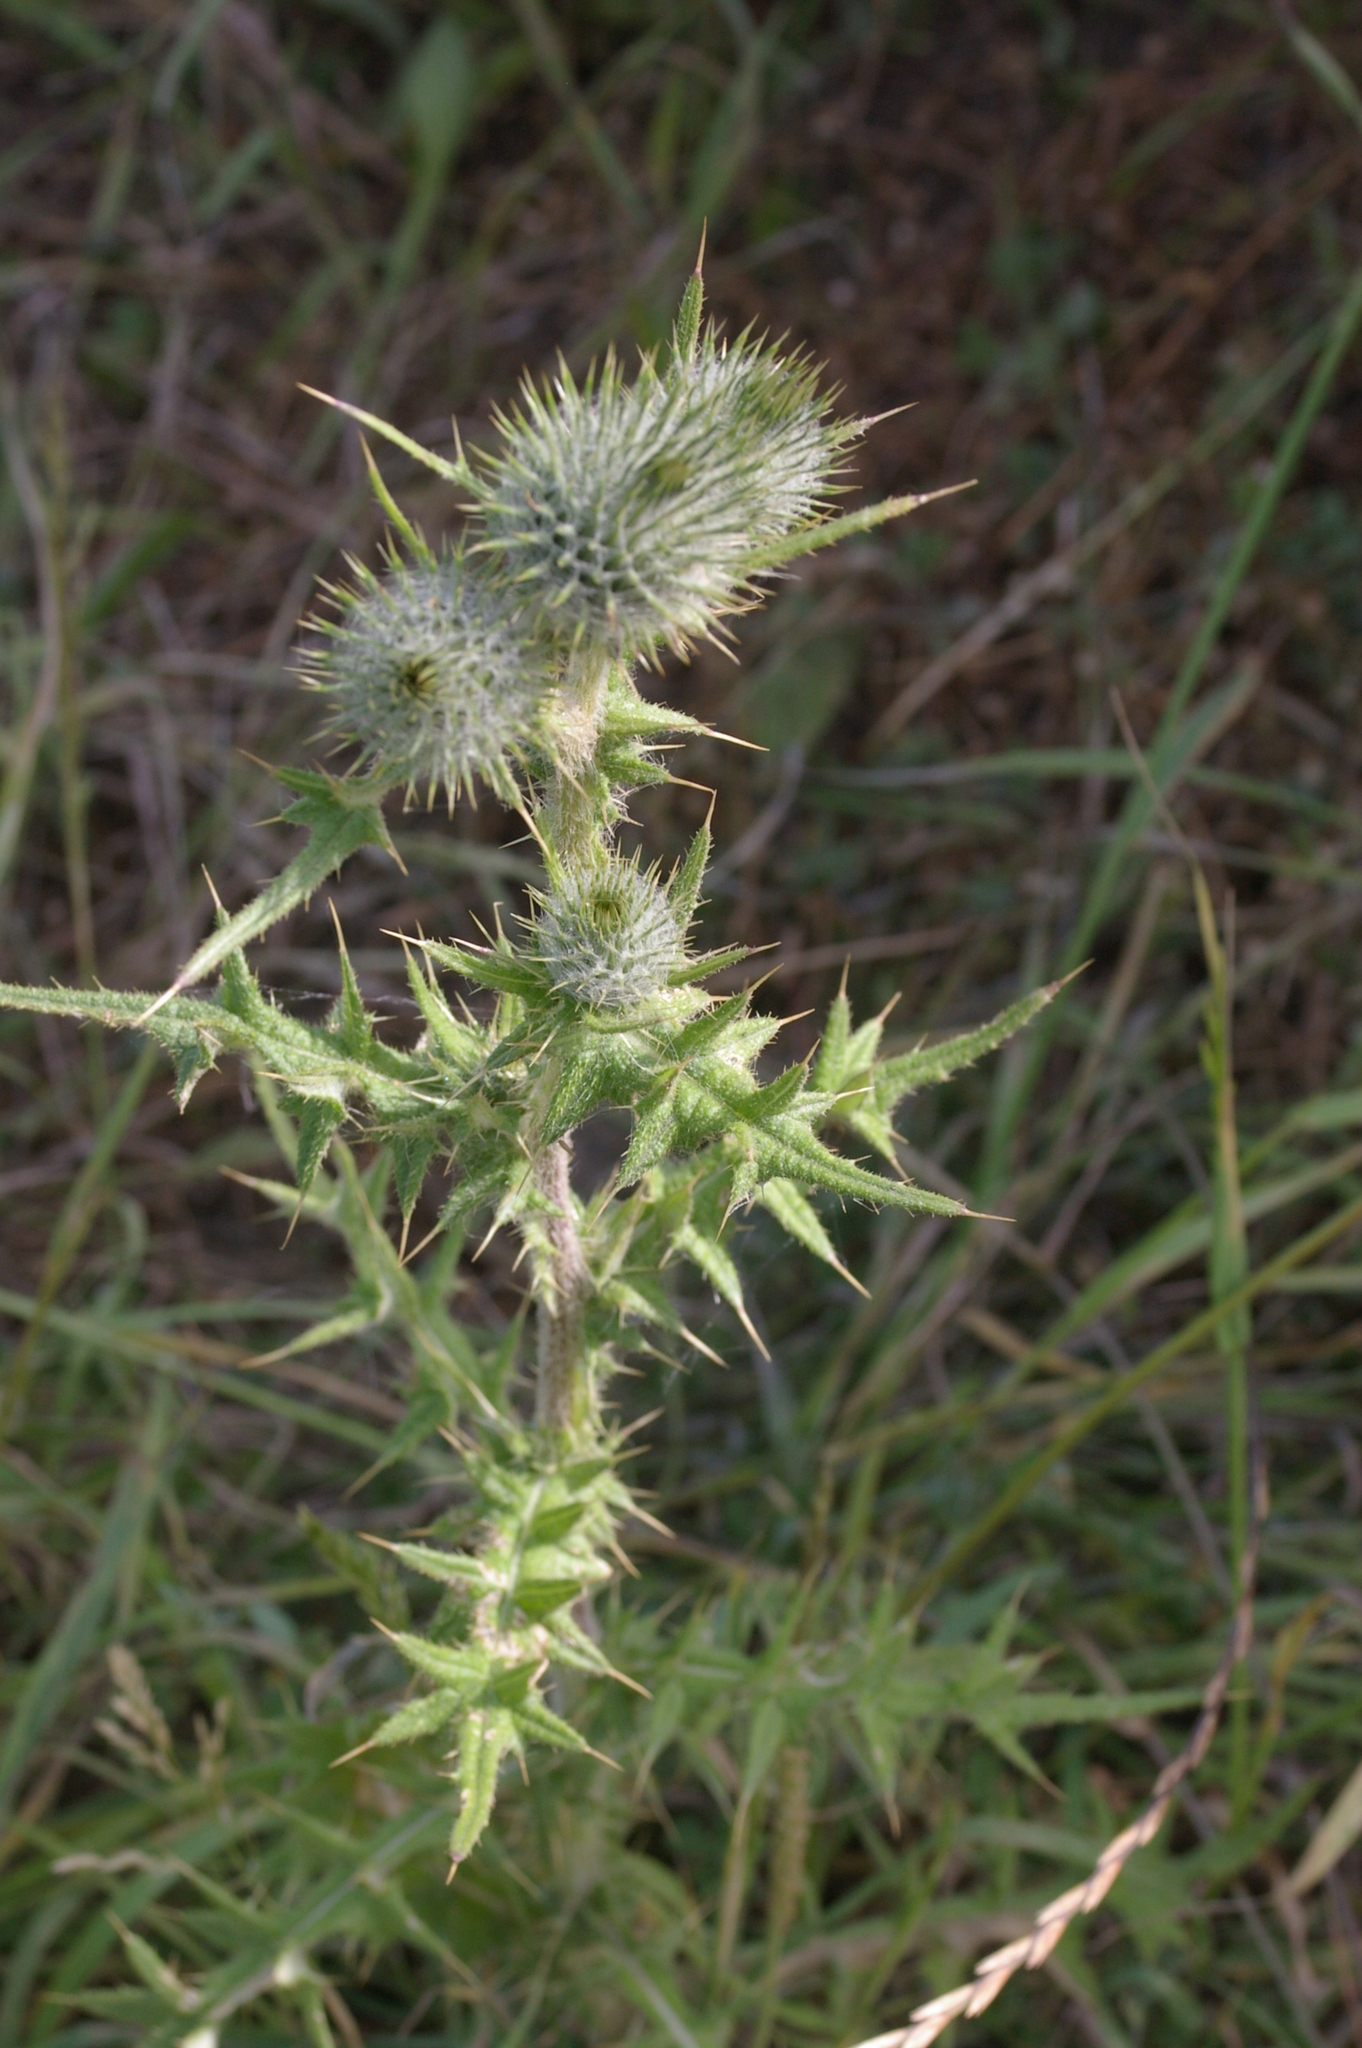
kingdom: Plantae
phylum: Tracheophyta
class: Magnoliopsida
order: Asterales
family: Asteraceae
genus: Cirsium
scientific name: Cirsium vulgare
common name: Bull thistle
